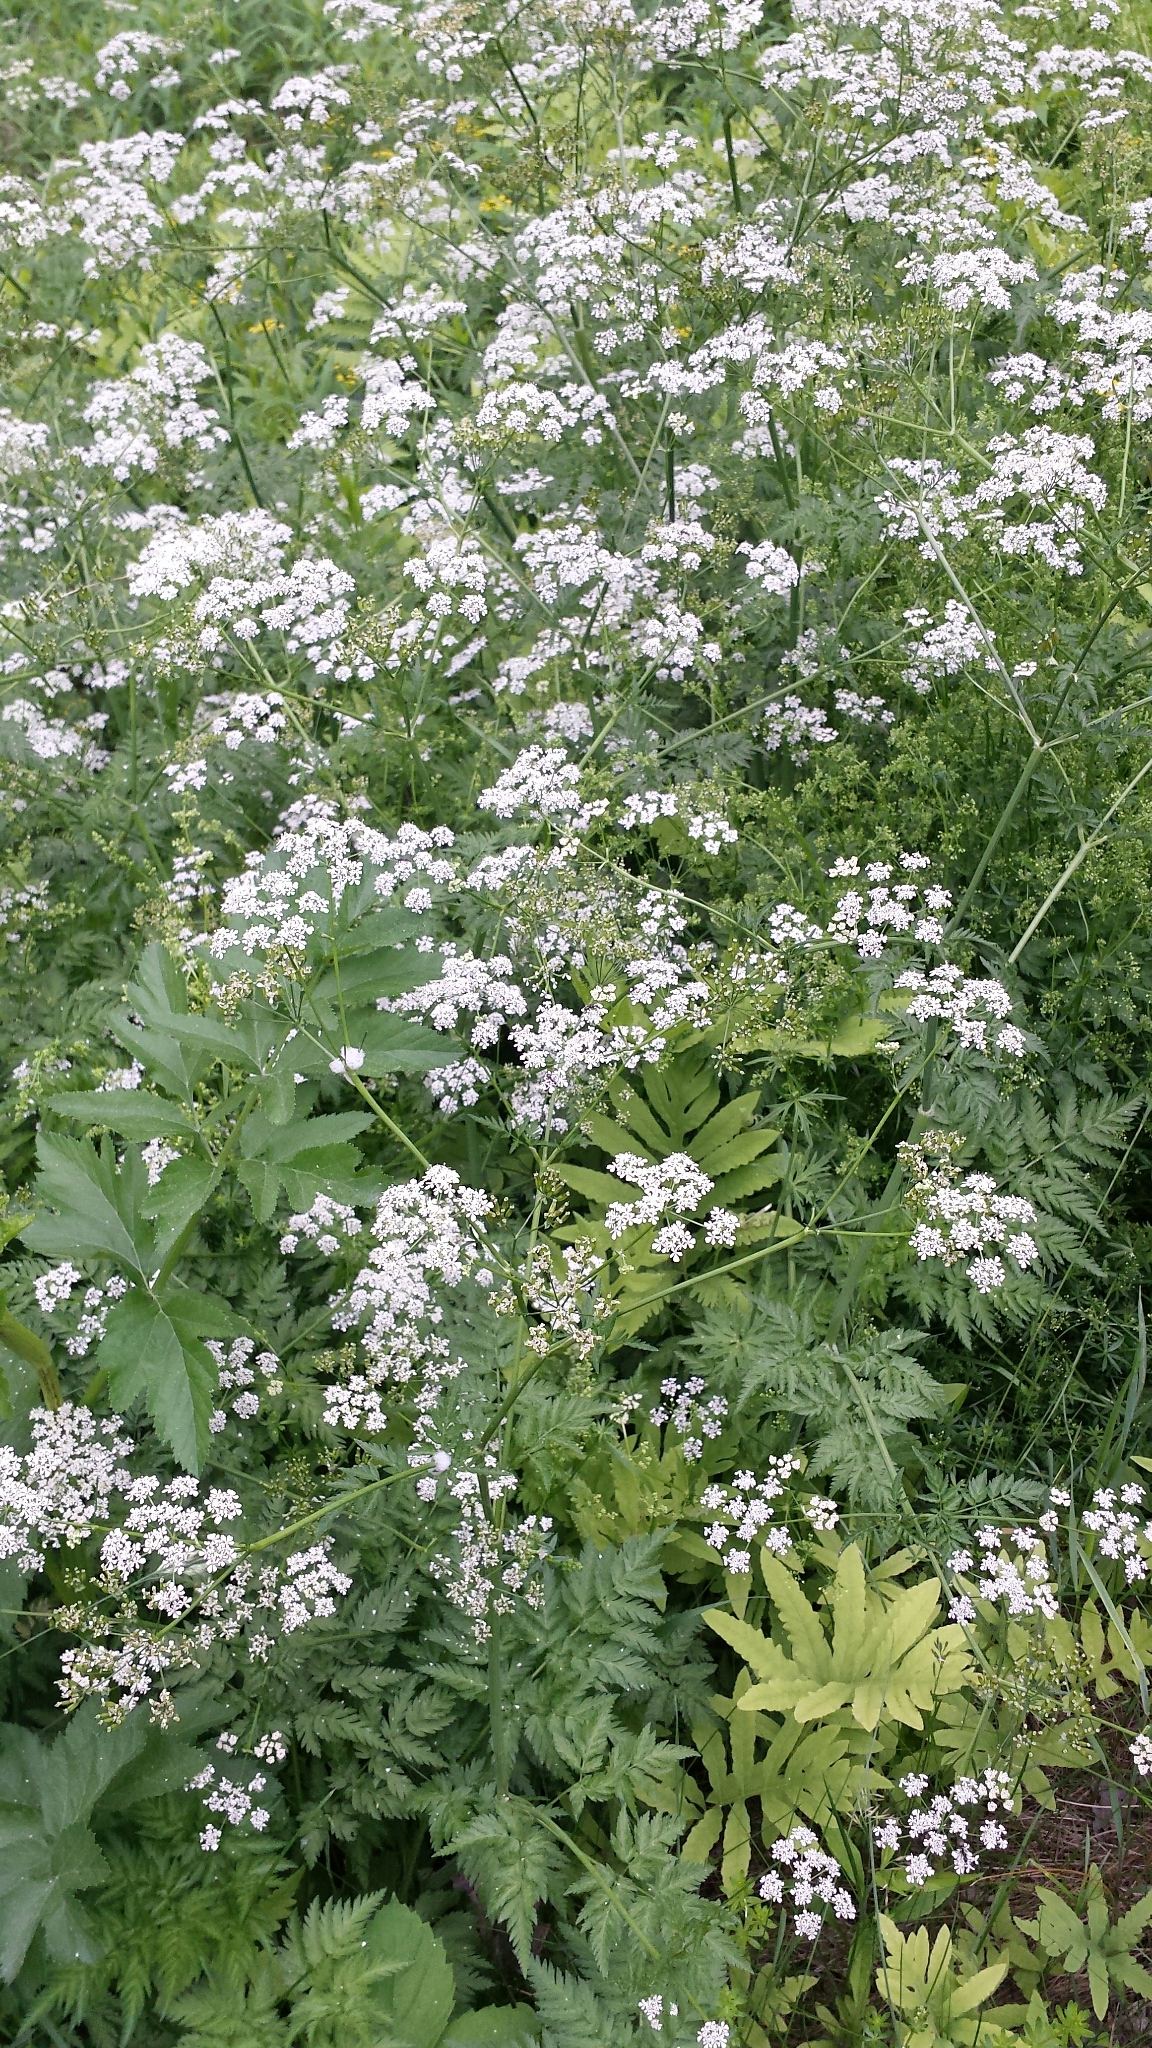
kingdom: Plantae
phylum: Tracheophyta
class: Magnoliopsida
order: Apiales
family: Apiaceae
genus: Anthriscus
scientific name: Anthriscus sylvestris
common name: Cow parsley
